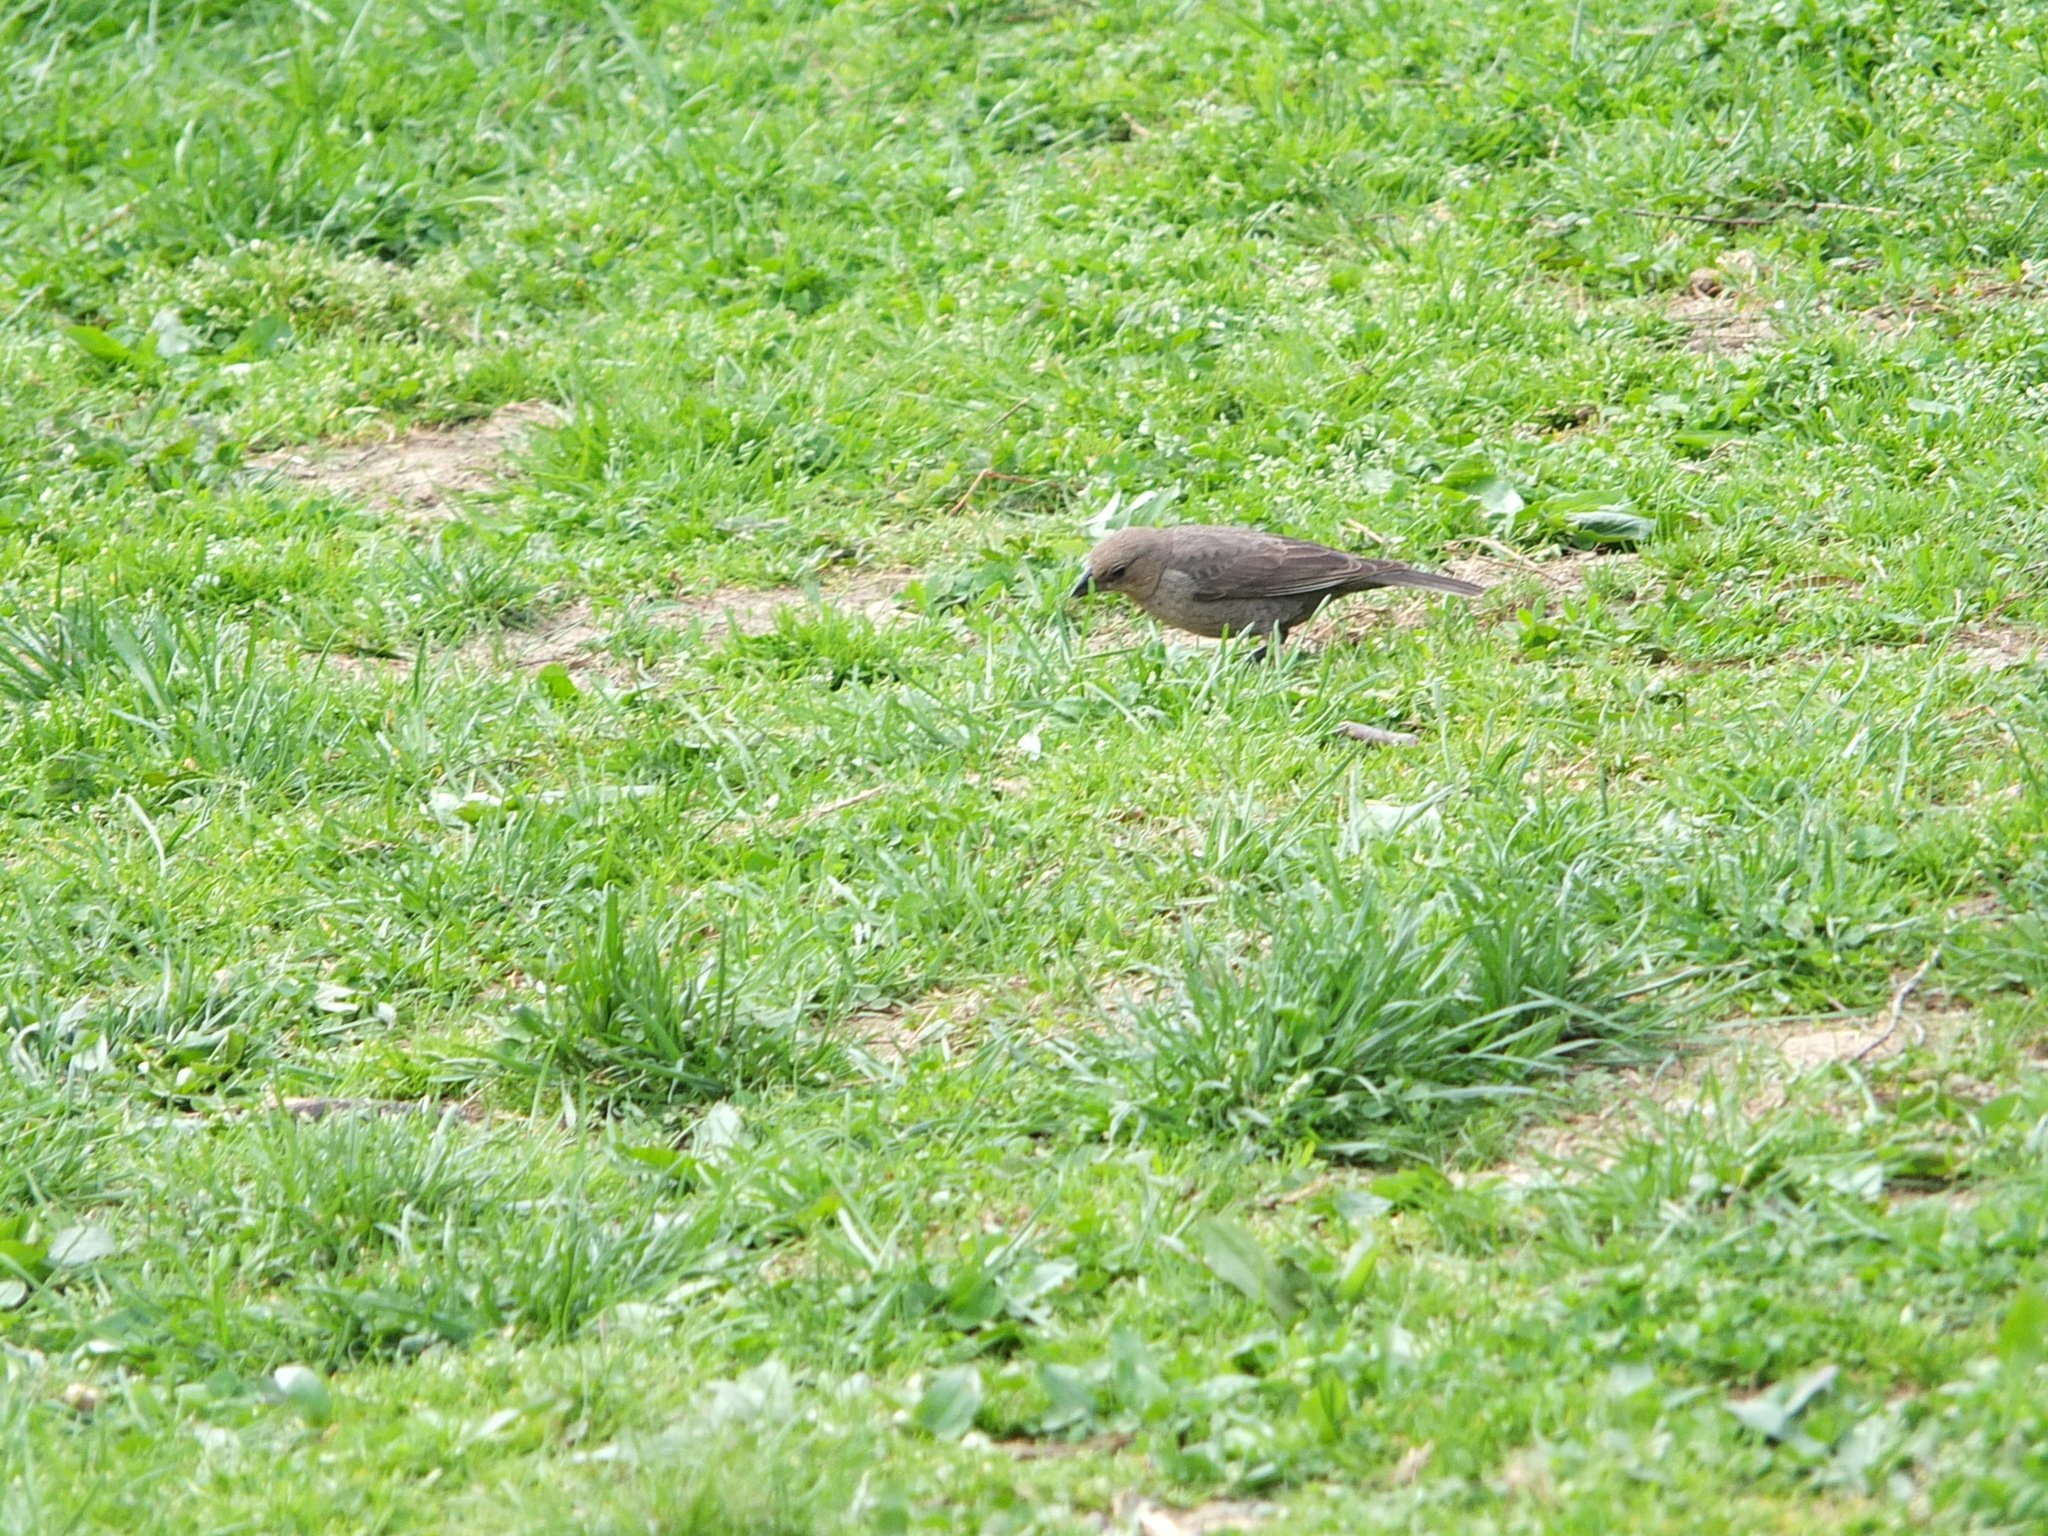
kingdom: Animalia
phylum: Chordata
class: Aves
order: Passeriformes
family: Icteridae
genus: Molothrus
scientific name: Molothrus ater
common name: Brown-headed cowbird
